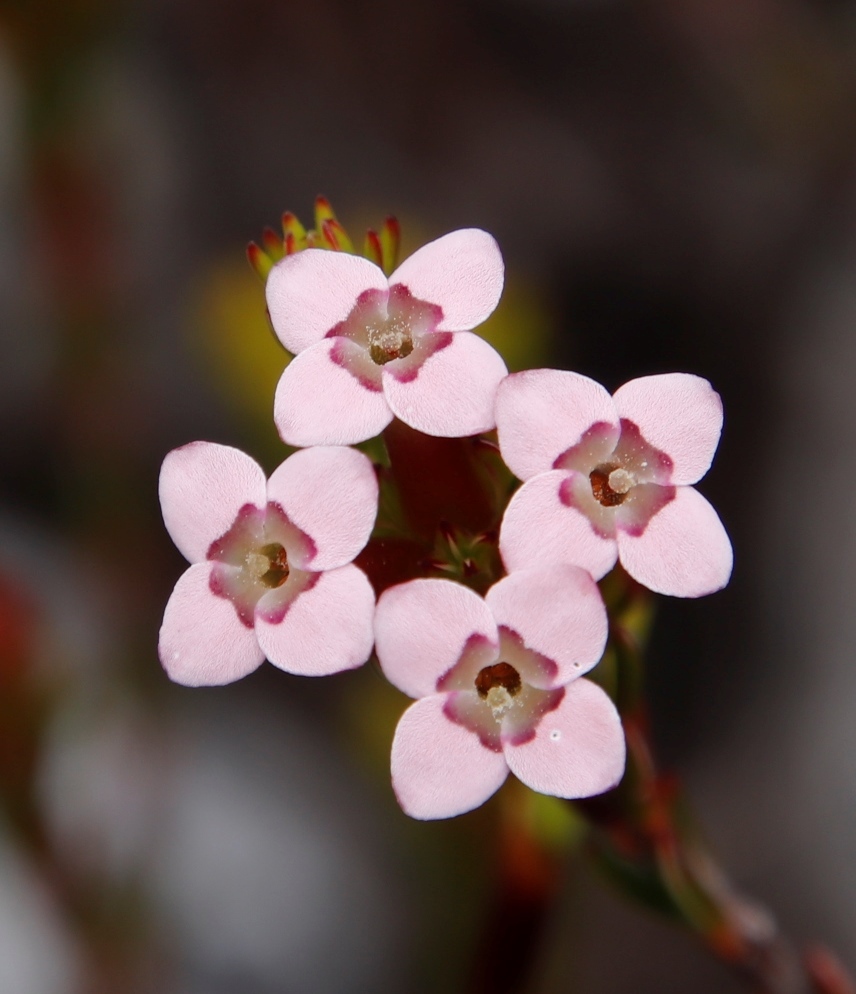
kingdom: Plantae
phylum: Tracheophyta
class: Magnoliopsida
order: Ericales
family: Ericaceae
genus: Erica
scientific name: Erica fastigiata
